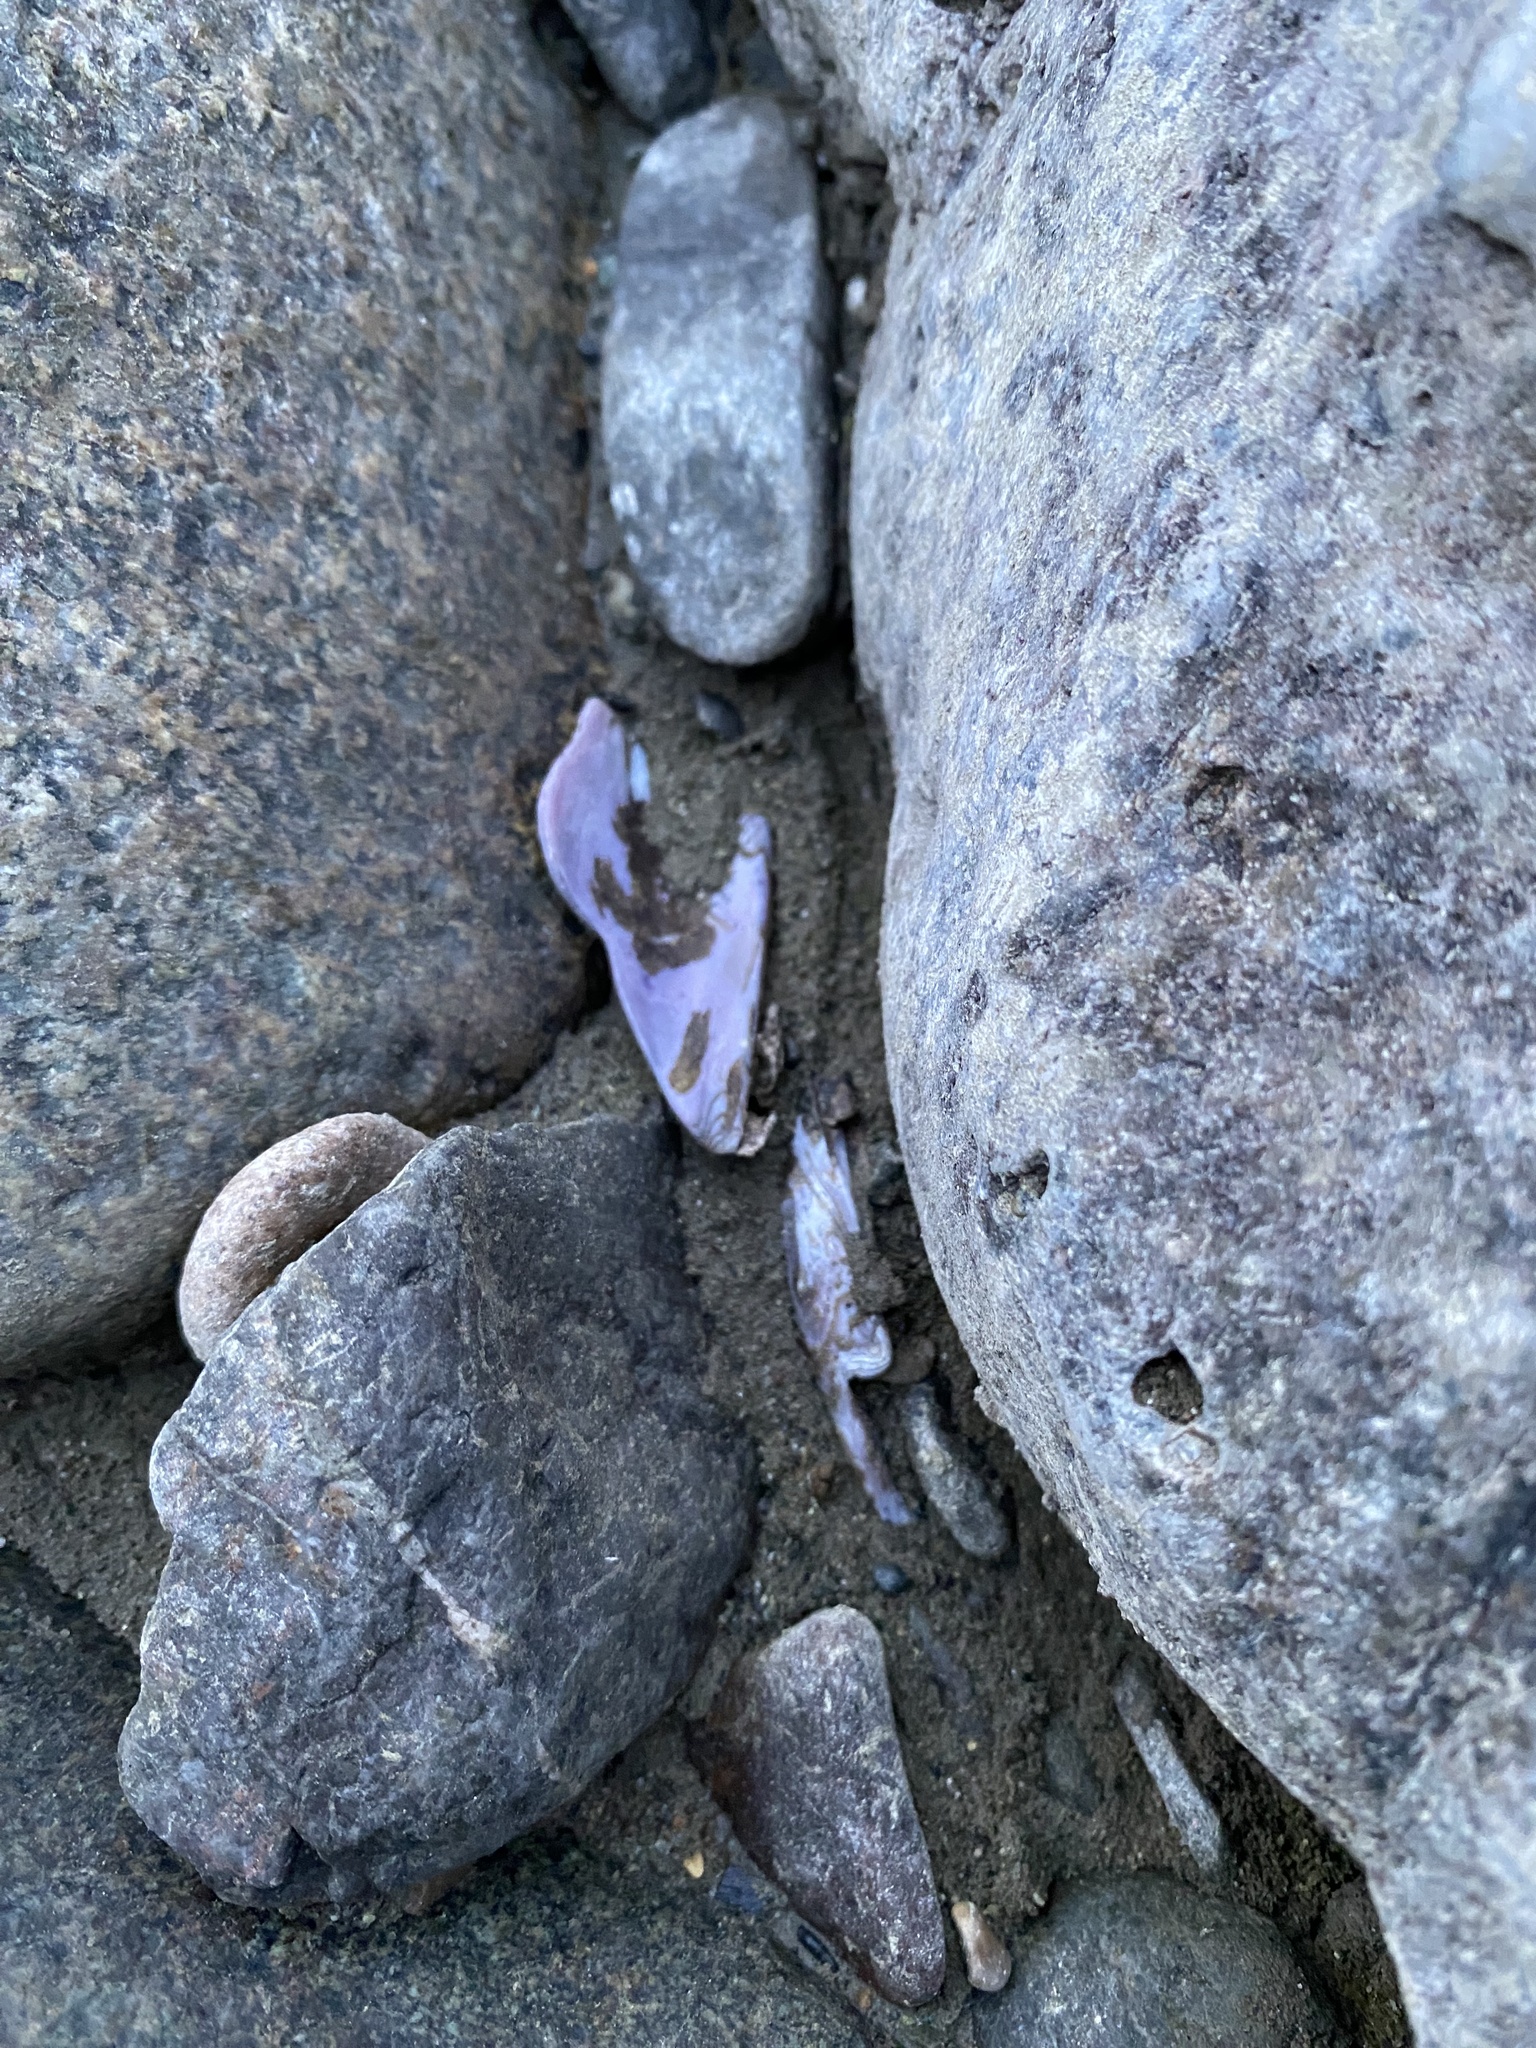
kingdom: Animalia
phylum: Mollusca
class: Bivalvia
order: Unionida
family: Margaritiferidae
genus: Margaritifera
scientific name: Margaritifera falcata
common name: Western pearlshell
